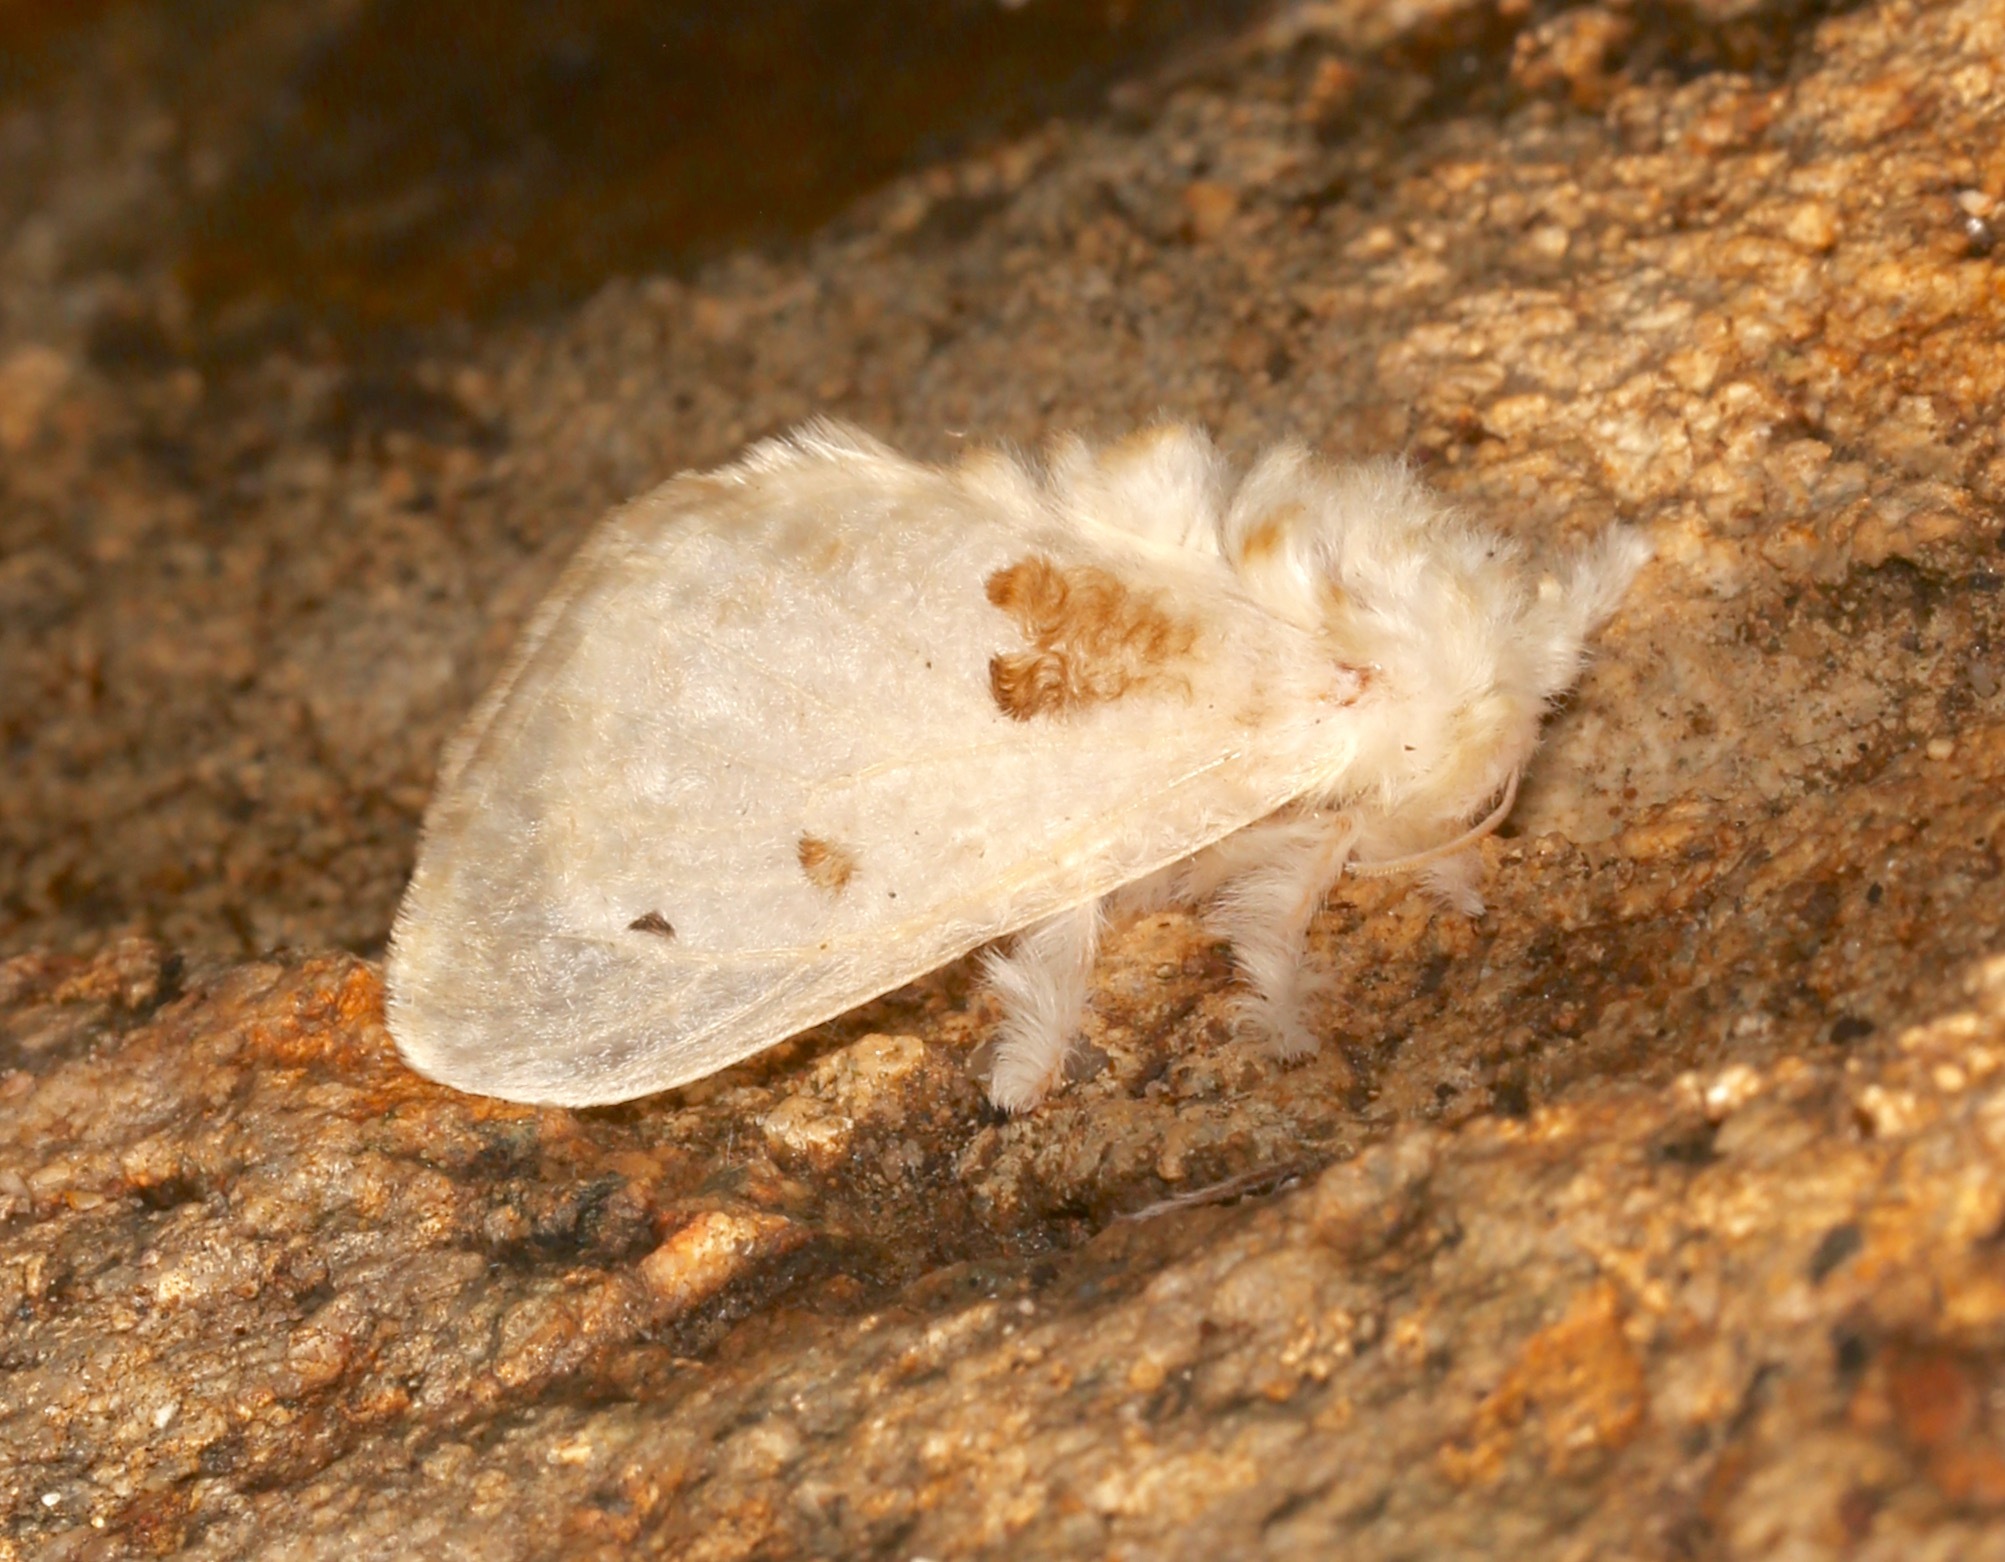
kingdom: Animalia
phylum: Arthropoda
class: Insecta
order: Lepidoptera
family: Megalopygidae
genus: Megalopyge
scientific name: Megalopyge lapena
